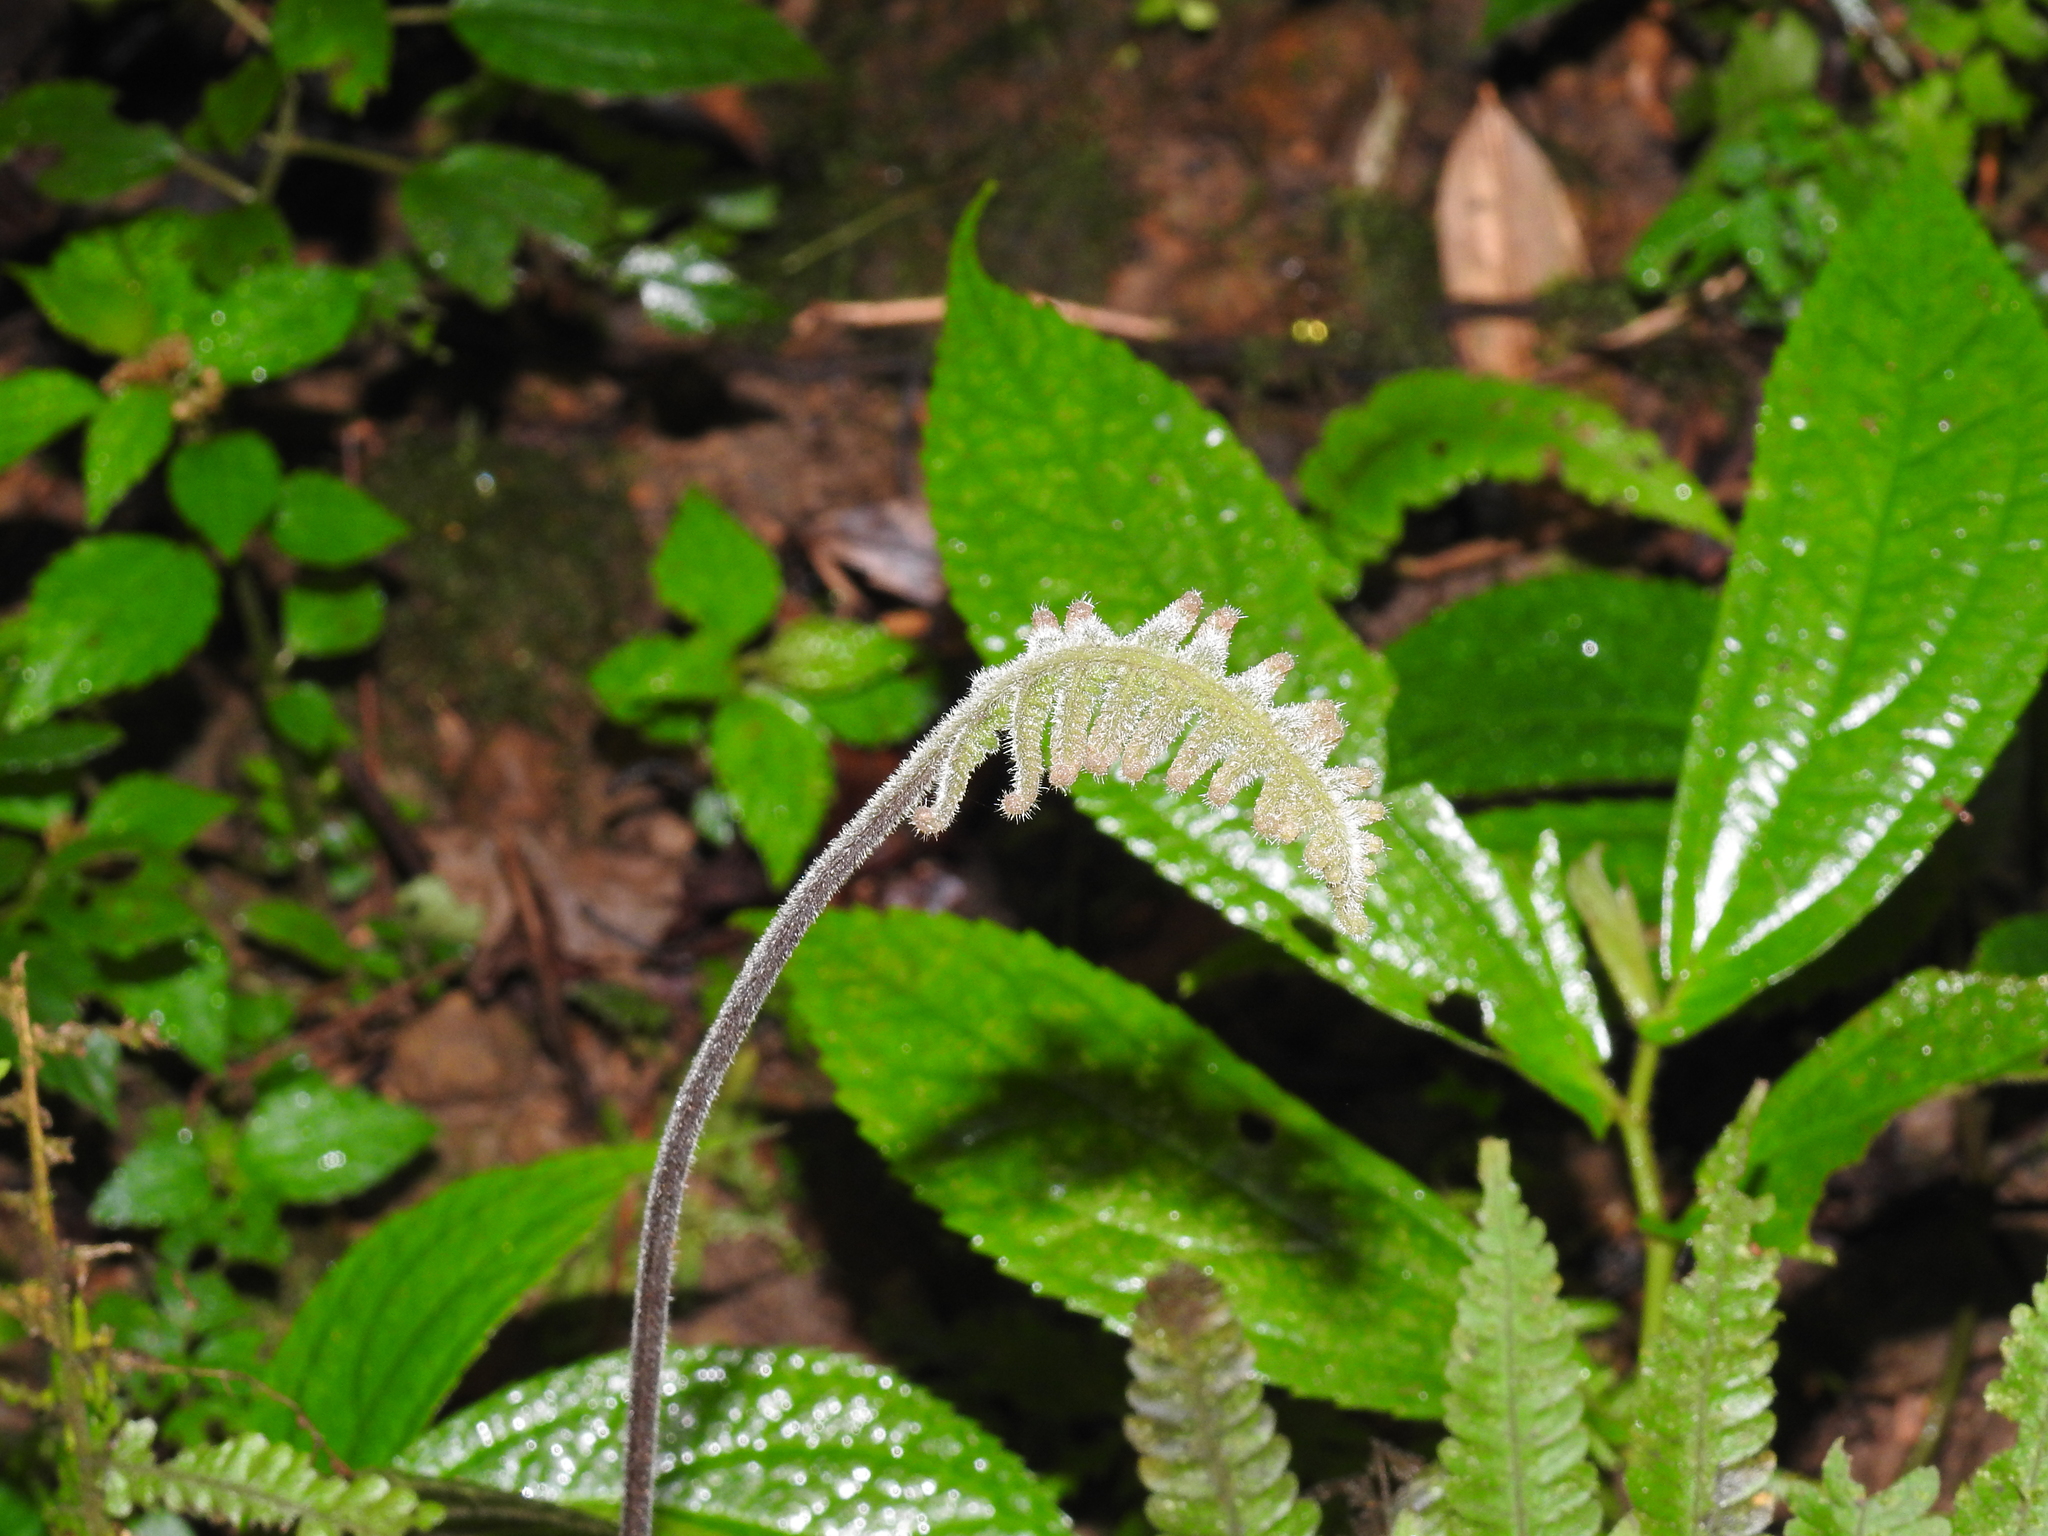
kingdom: Plantae
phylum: Tracheophyta
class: Polypodiopsida
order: Polypodiales
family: Thelypteridaceae
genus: Christella
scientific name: Christella parasitica
